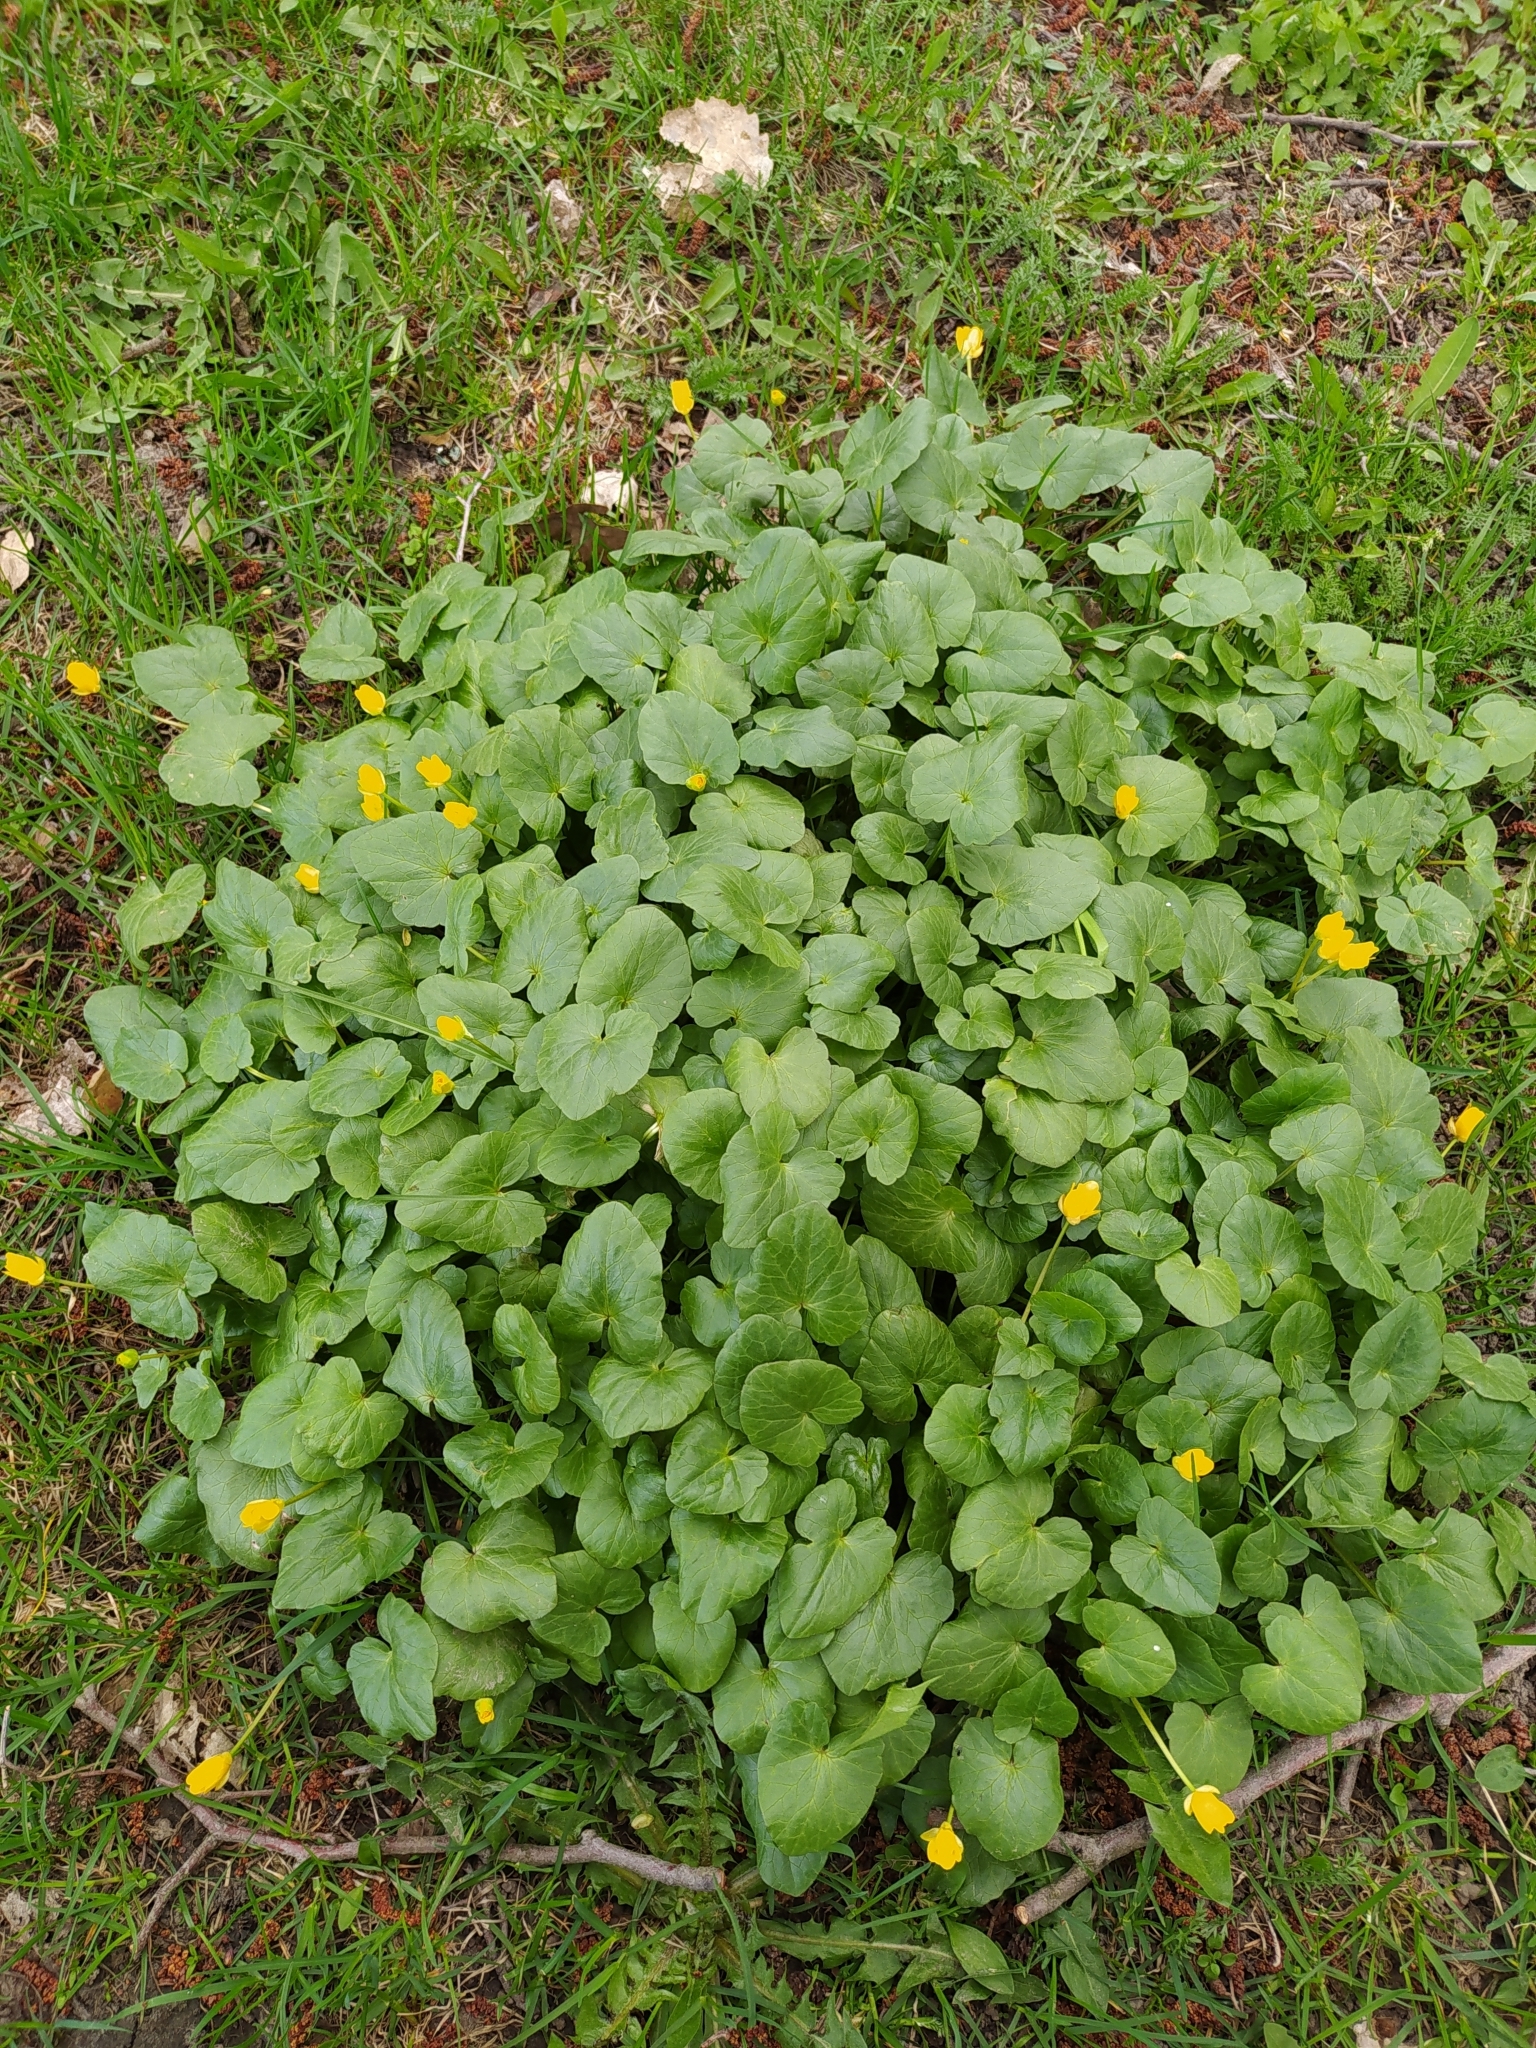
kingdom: Plantae
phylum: Tracheophyta
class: Magnoliopsida
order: Ranunculales
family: Ranunculaceae
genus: Ficaria
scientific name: Ficaria verna
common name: Lesser celandine
